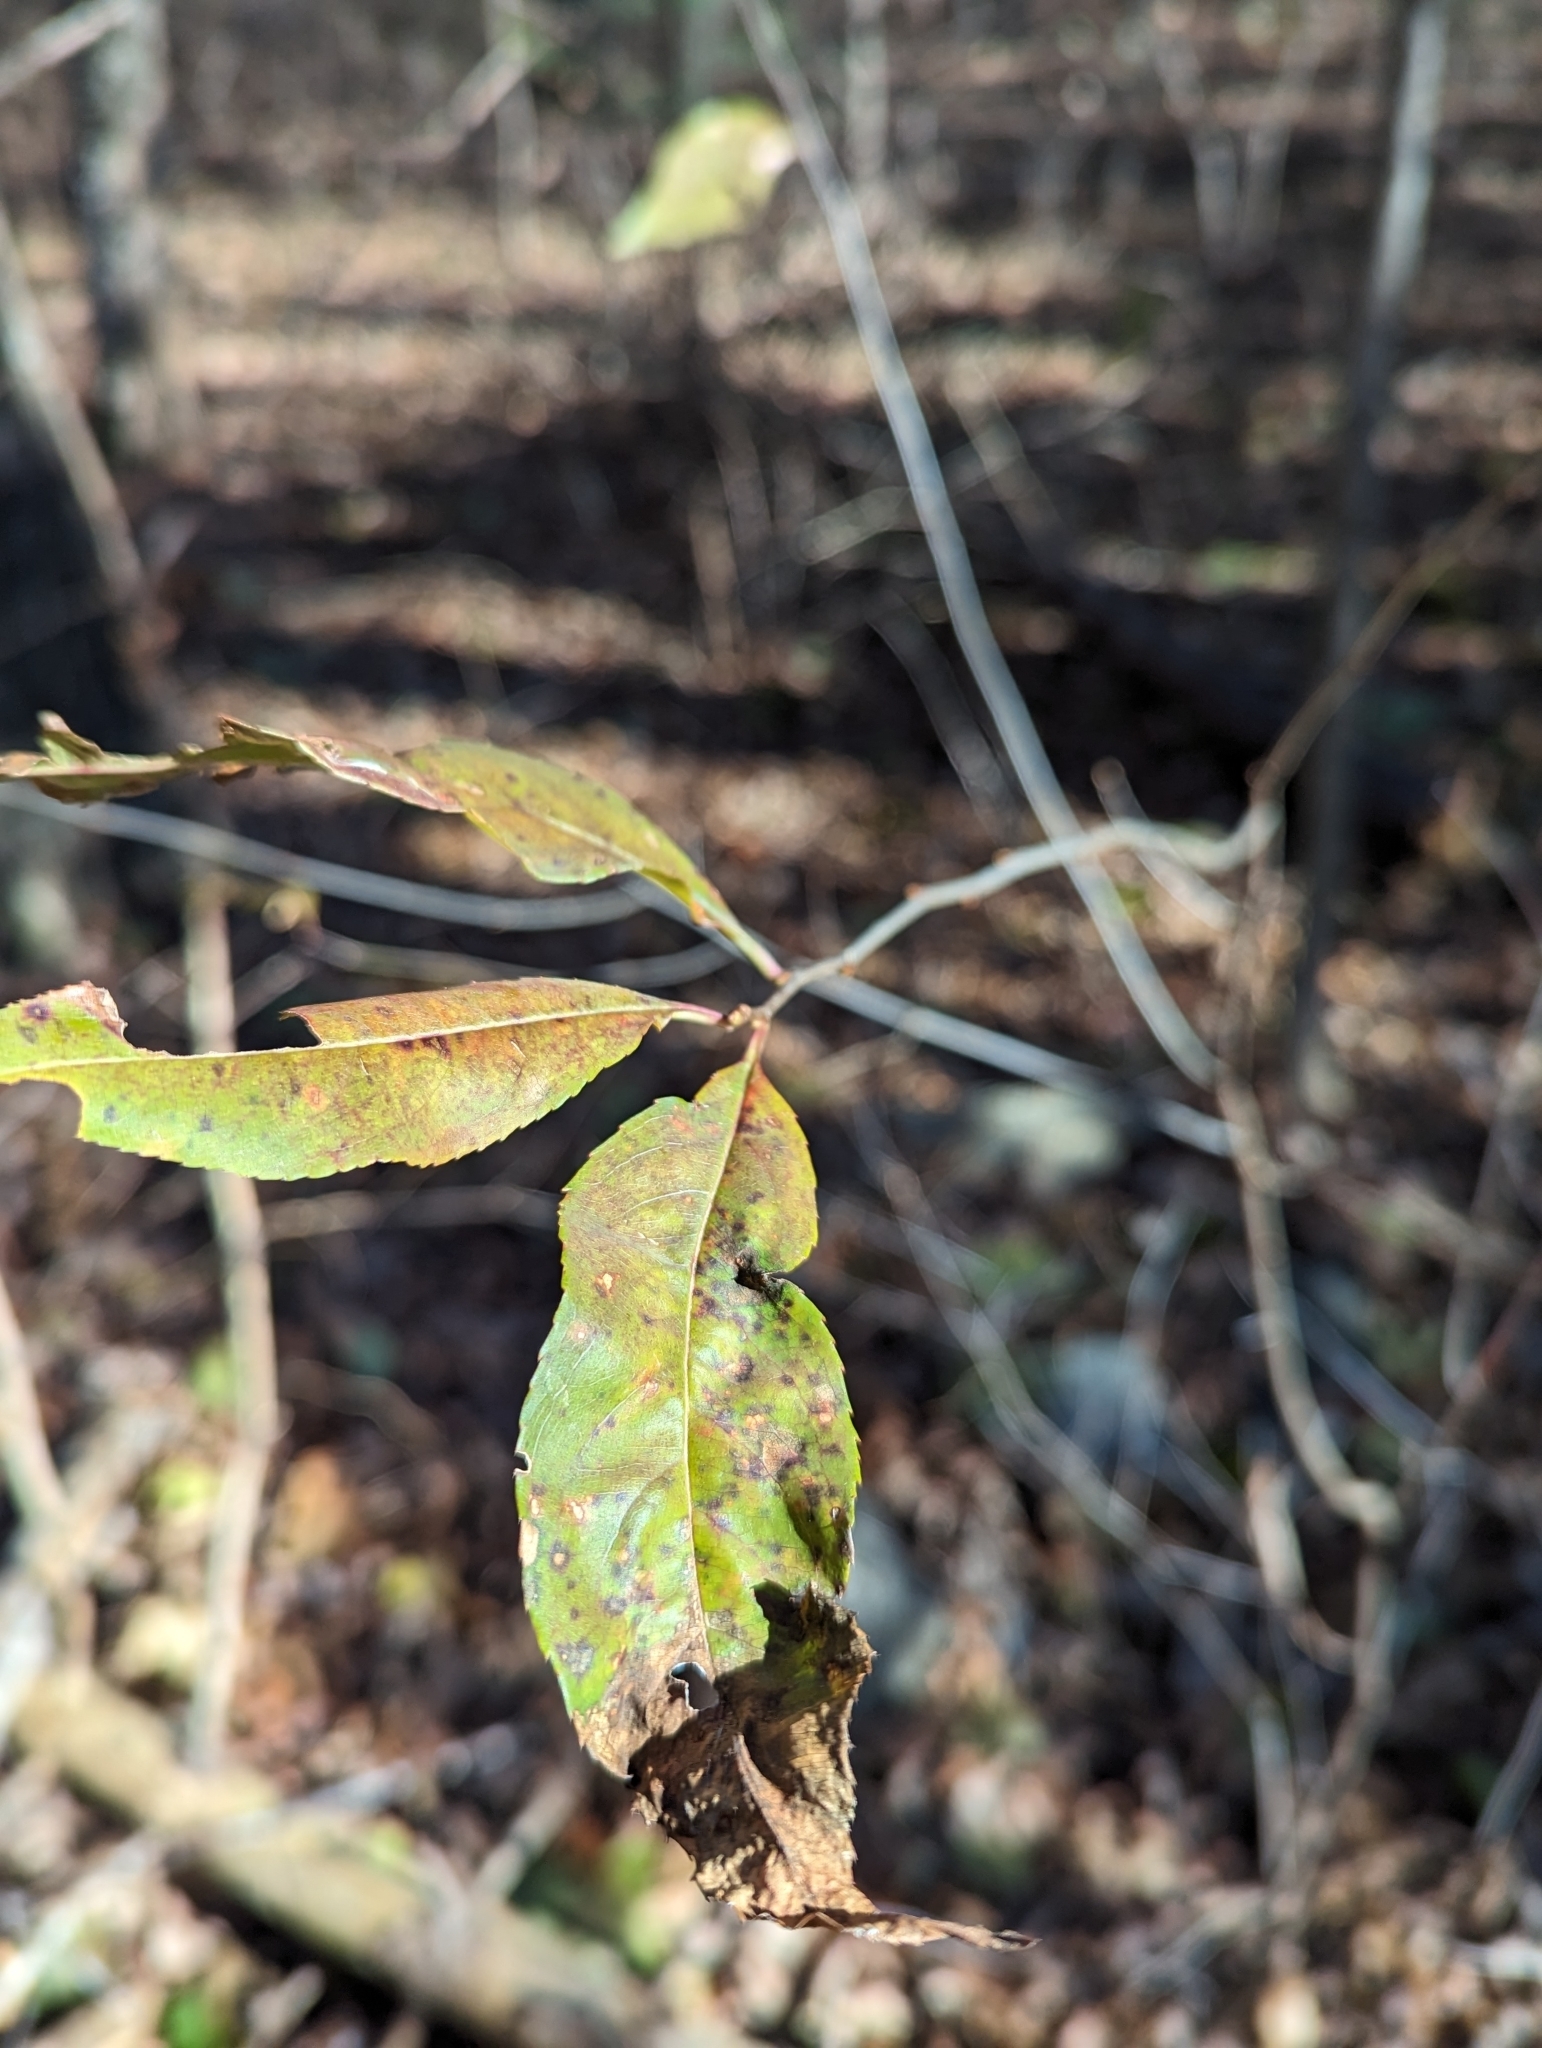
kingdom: Plantae
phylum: Tracheophyta
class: Magnoliopsida
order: Rosales
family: Rosaceae
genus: Prunus
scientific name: Prunus serotina
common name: Black cherry
